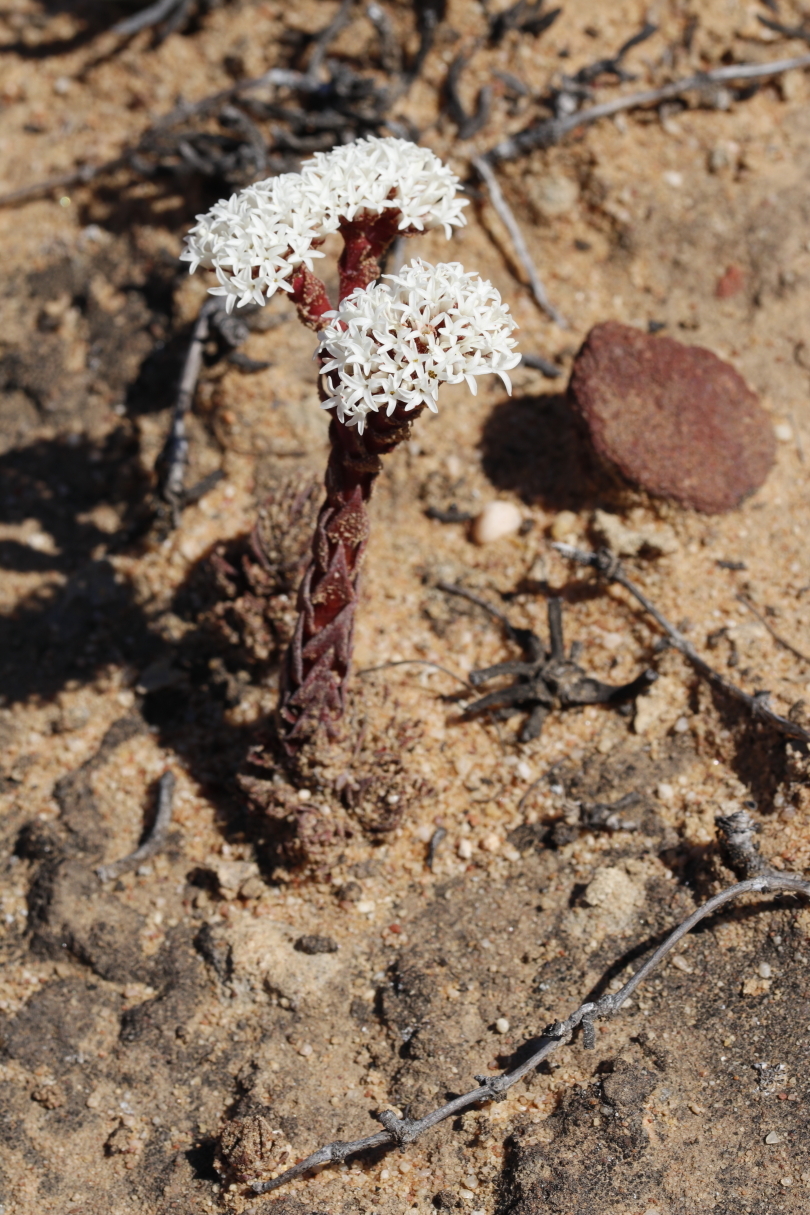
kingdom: Plantae
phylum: Tracheophyta
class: Magnoliopsida
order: Saxifragales
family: Crassulaceae
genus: Crassula
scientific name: Crassula alpestris
